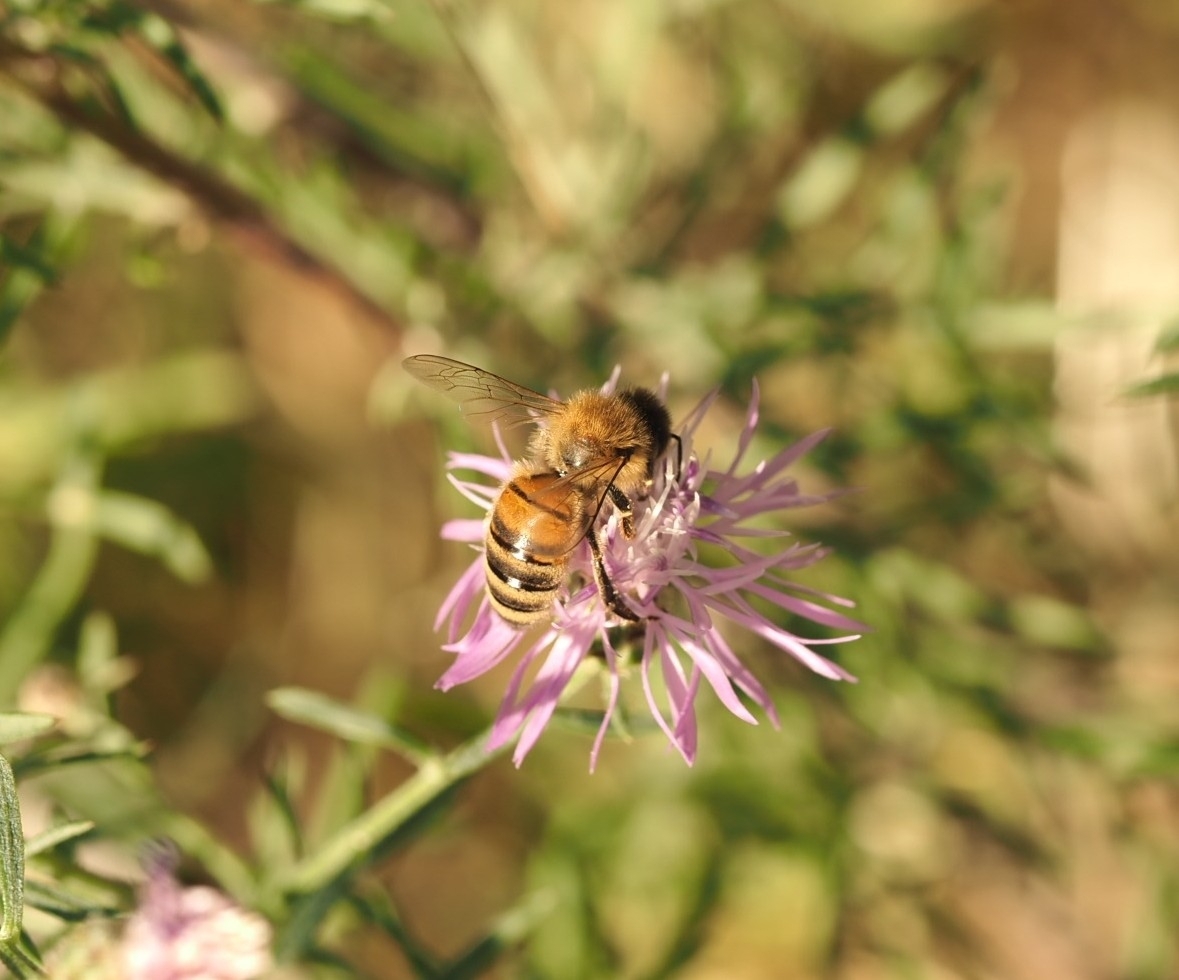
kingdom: Animalia
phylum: Arthropoda
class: Insecta
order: Hymenoptera
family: Apidae
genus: Apis
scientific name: Apis mellifera
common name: Honey bee
